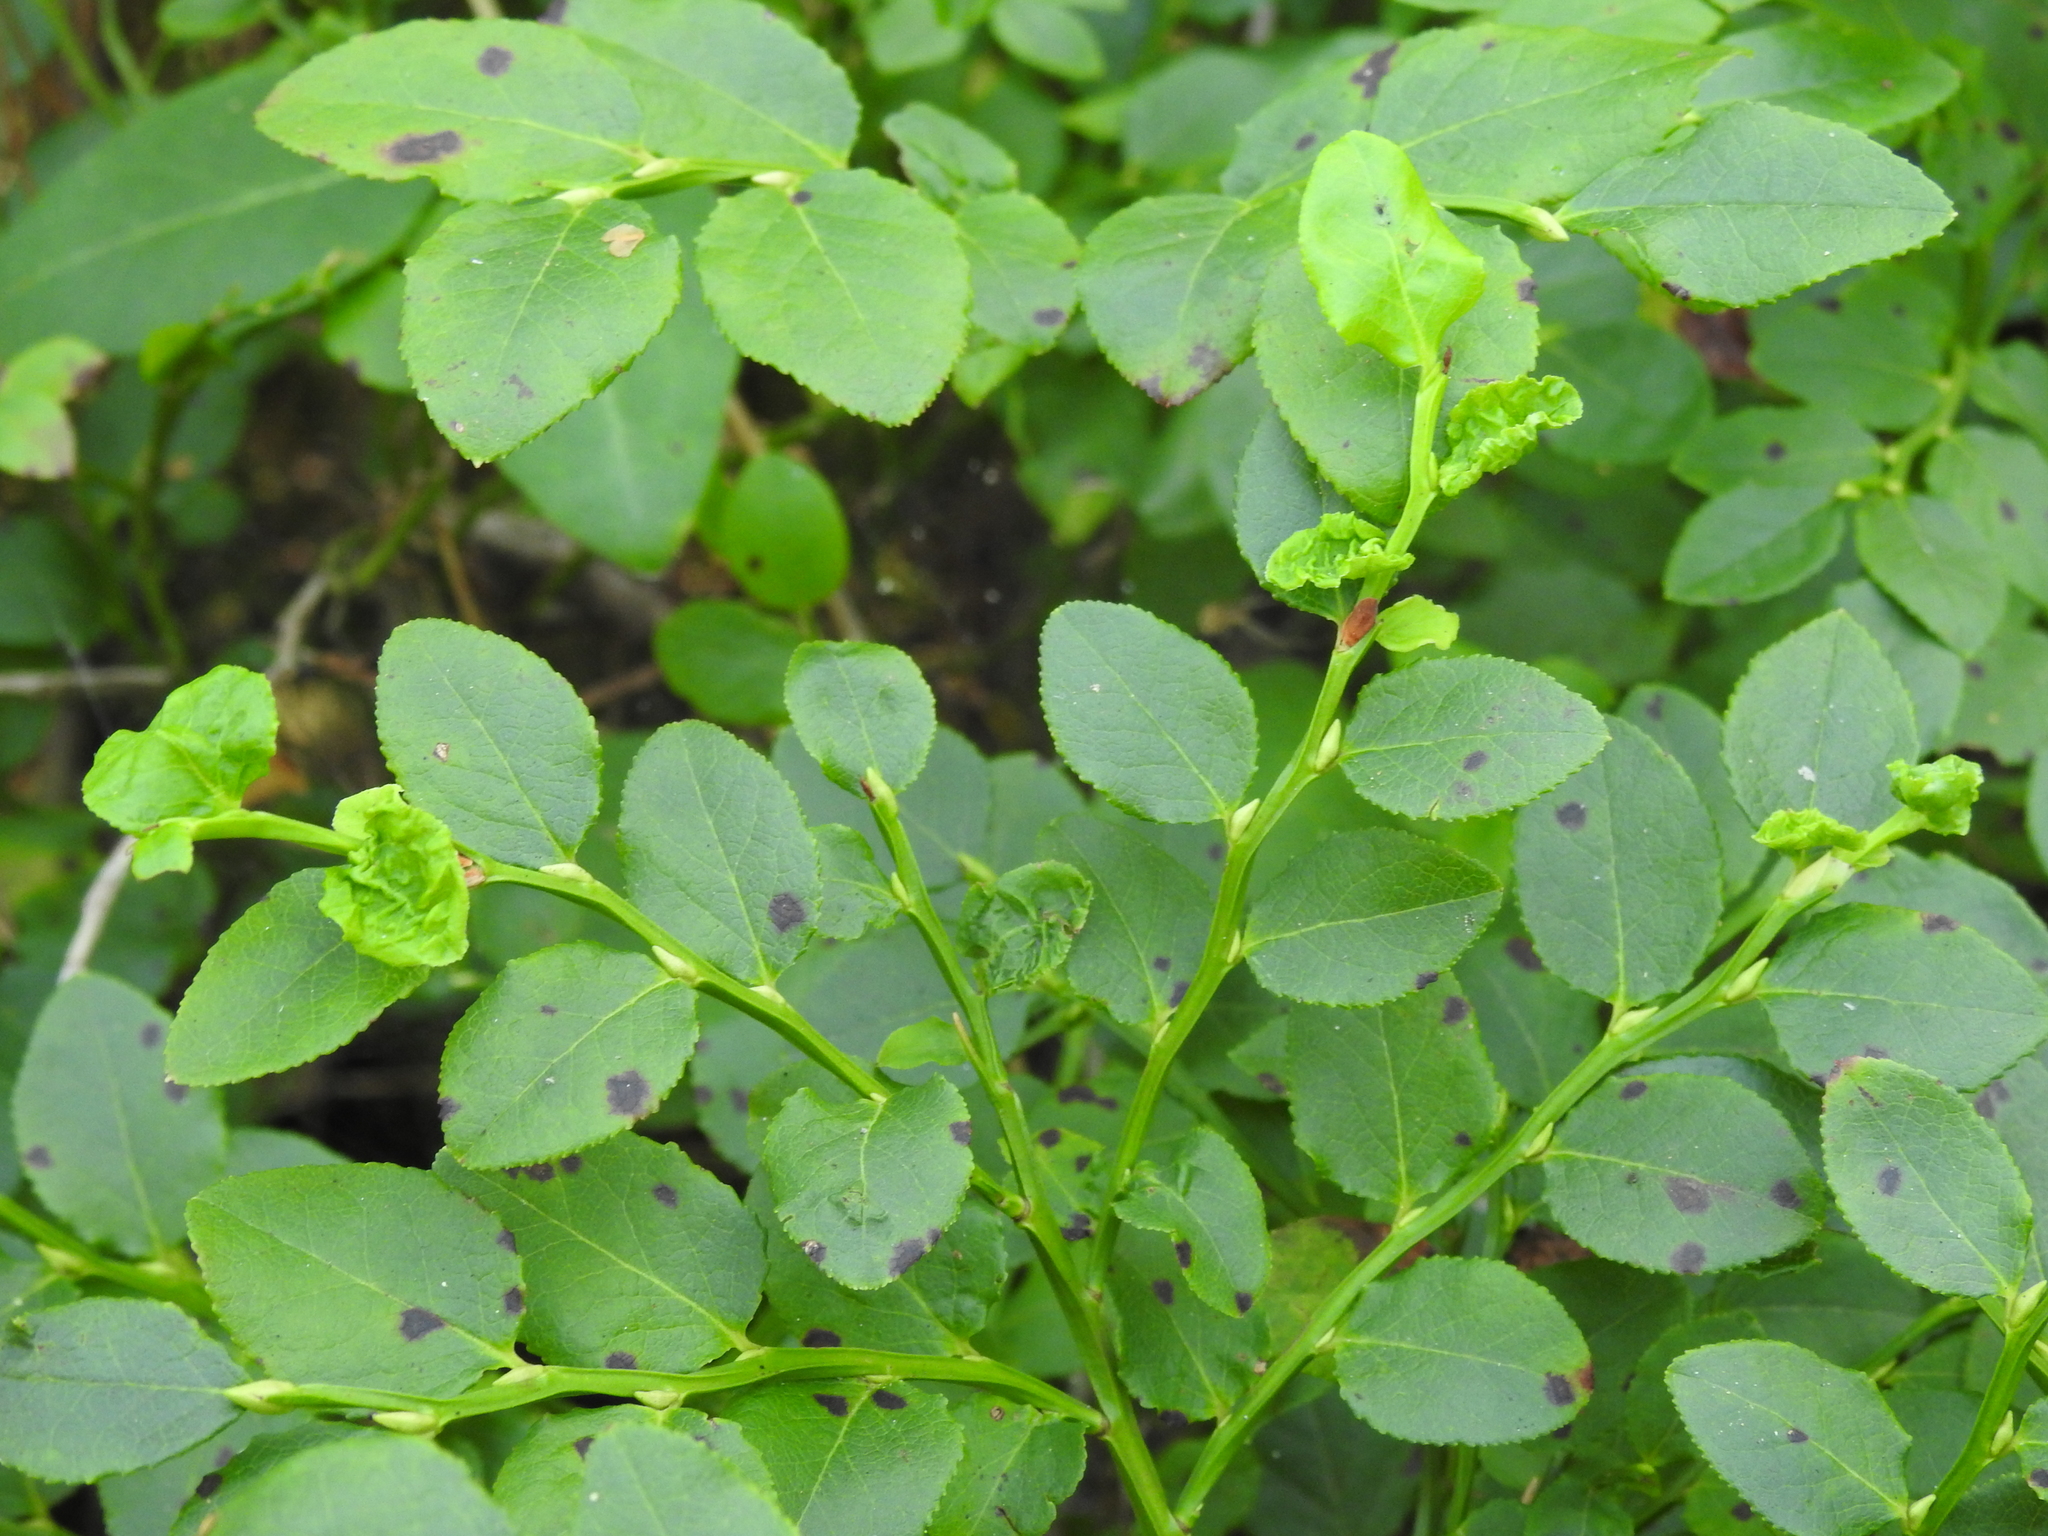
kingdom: Plantae
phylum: Tracheophyta
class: Magnoliopsida
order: Ericales
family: Ericaceae
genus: Vaccinium
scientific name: Vaccinium myrtillus
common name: Bilberry
